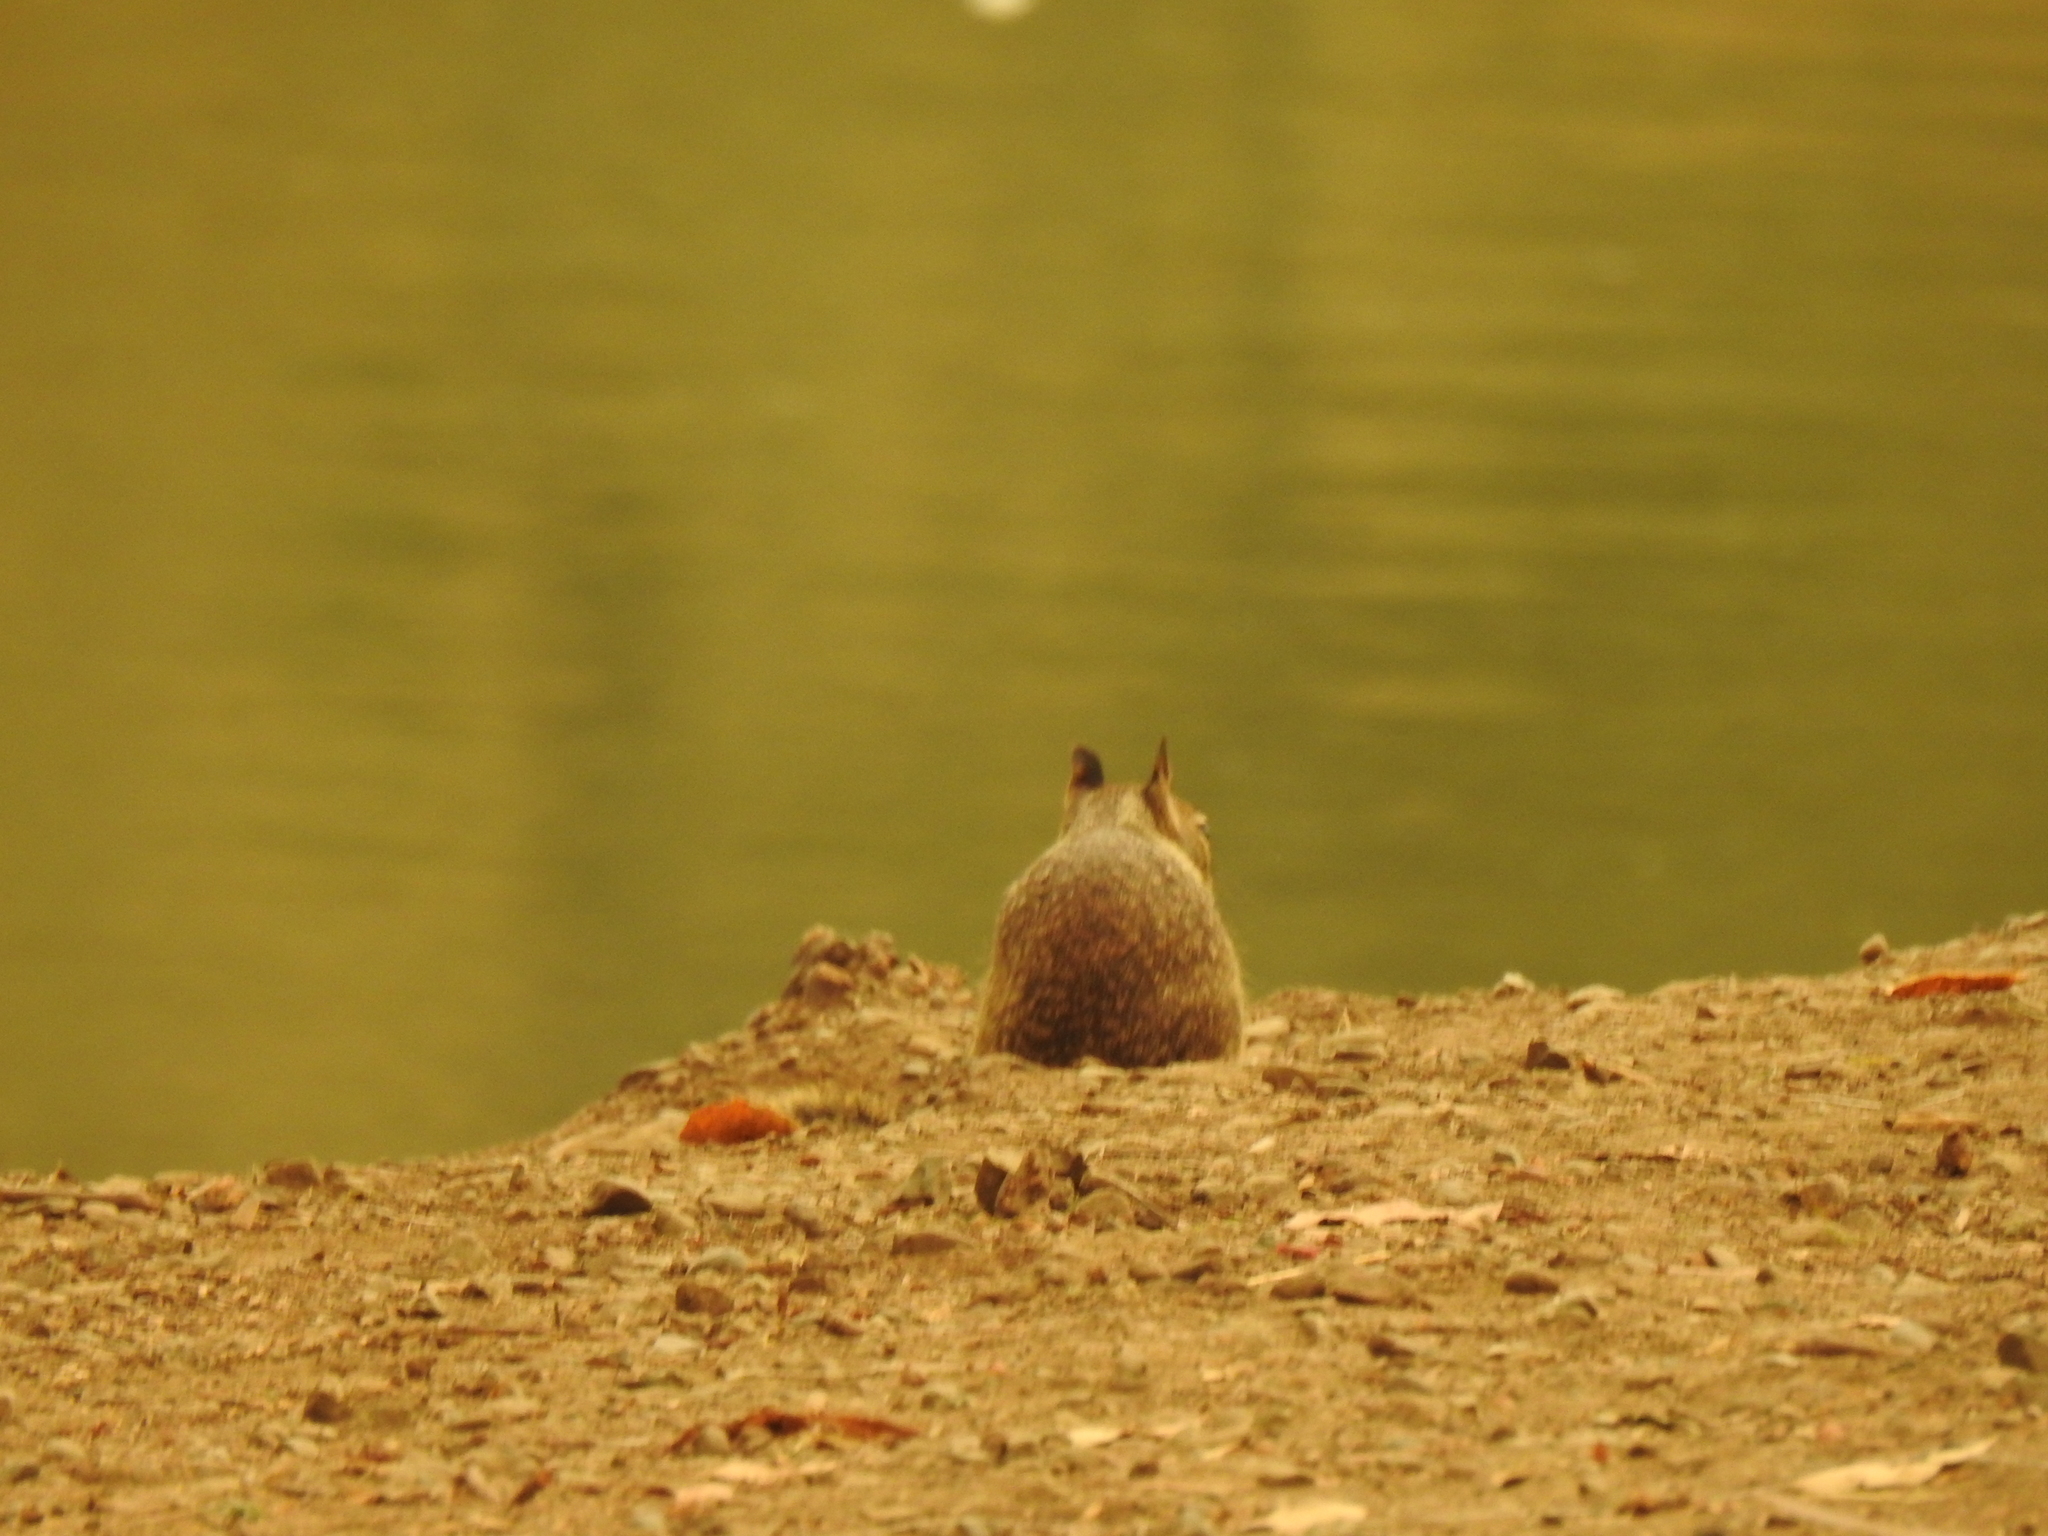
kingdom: Animalia
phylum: Chordata
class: Mammalia
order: Rodentia
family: Sciuridae
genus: Otospermophilus
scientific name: Otospermophilus beecheyi
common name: California ground squirrel
